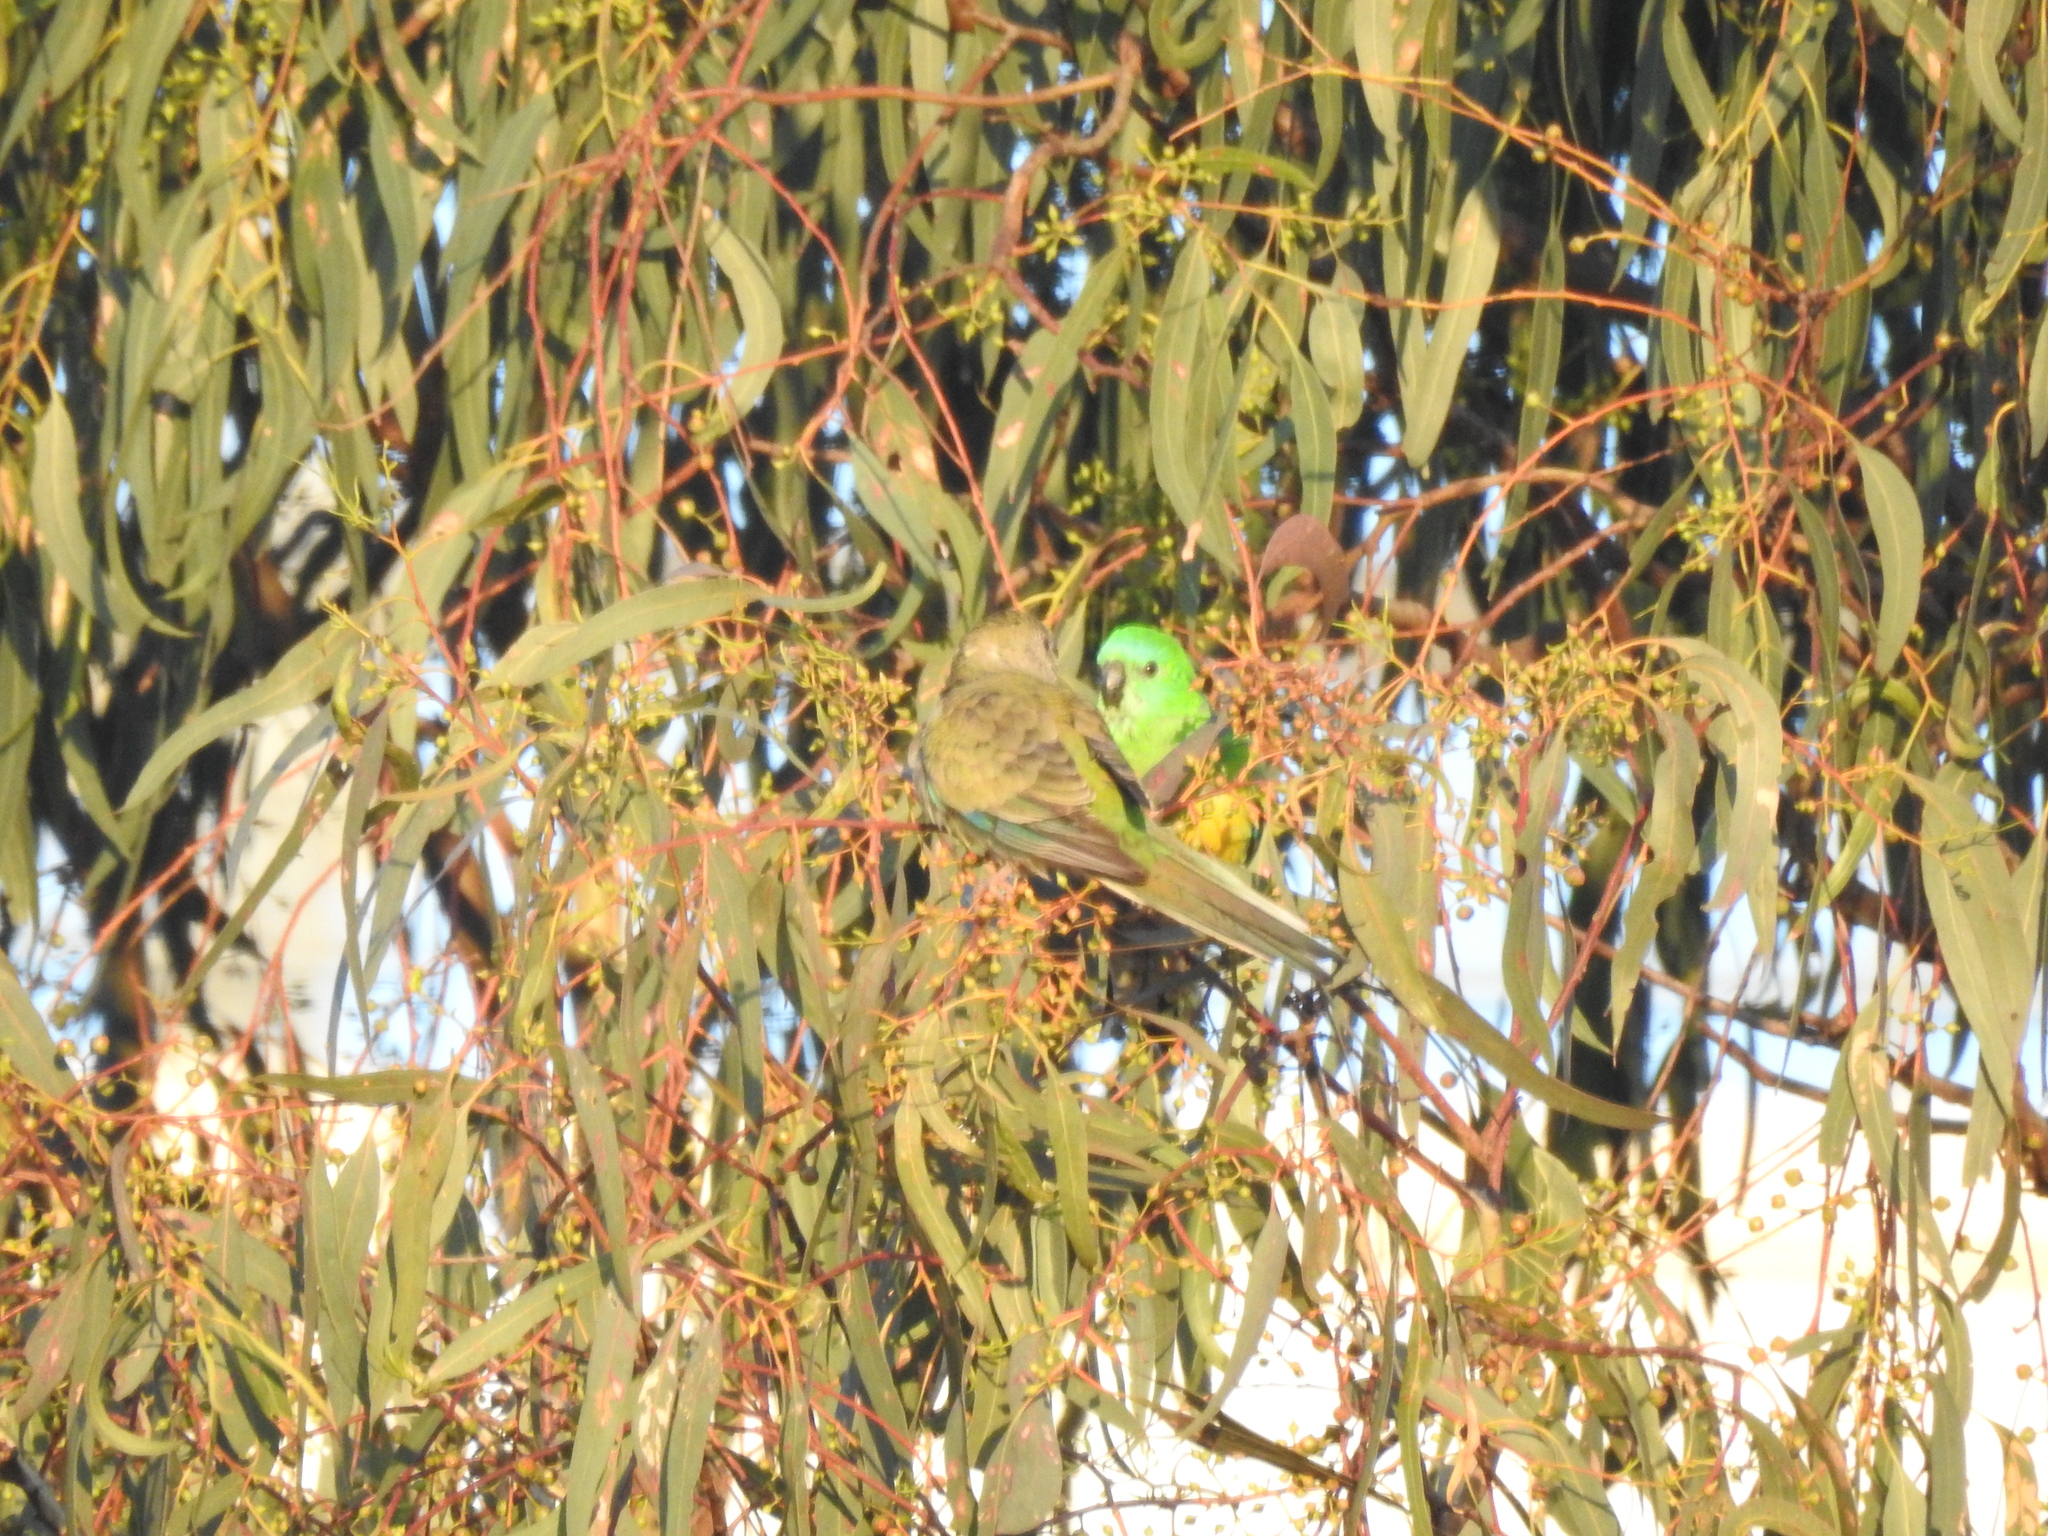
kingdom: Animalia
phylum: Chordata
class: Aves
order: Psittaciformes
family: Psittacidae
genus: Psephotus
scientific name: Psephotus haematonotus
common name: Red-rumped parrot
